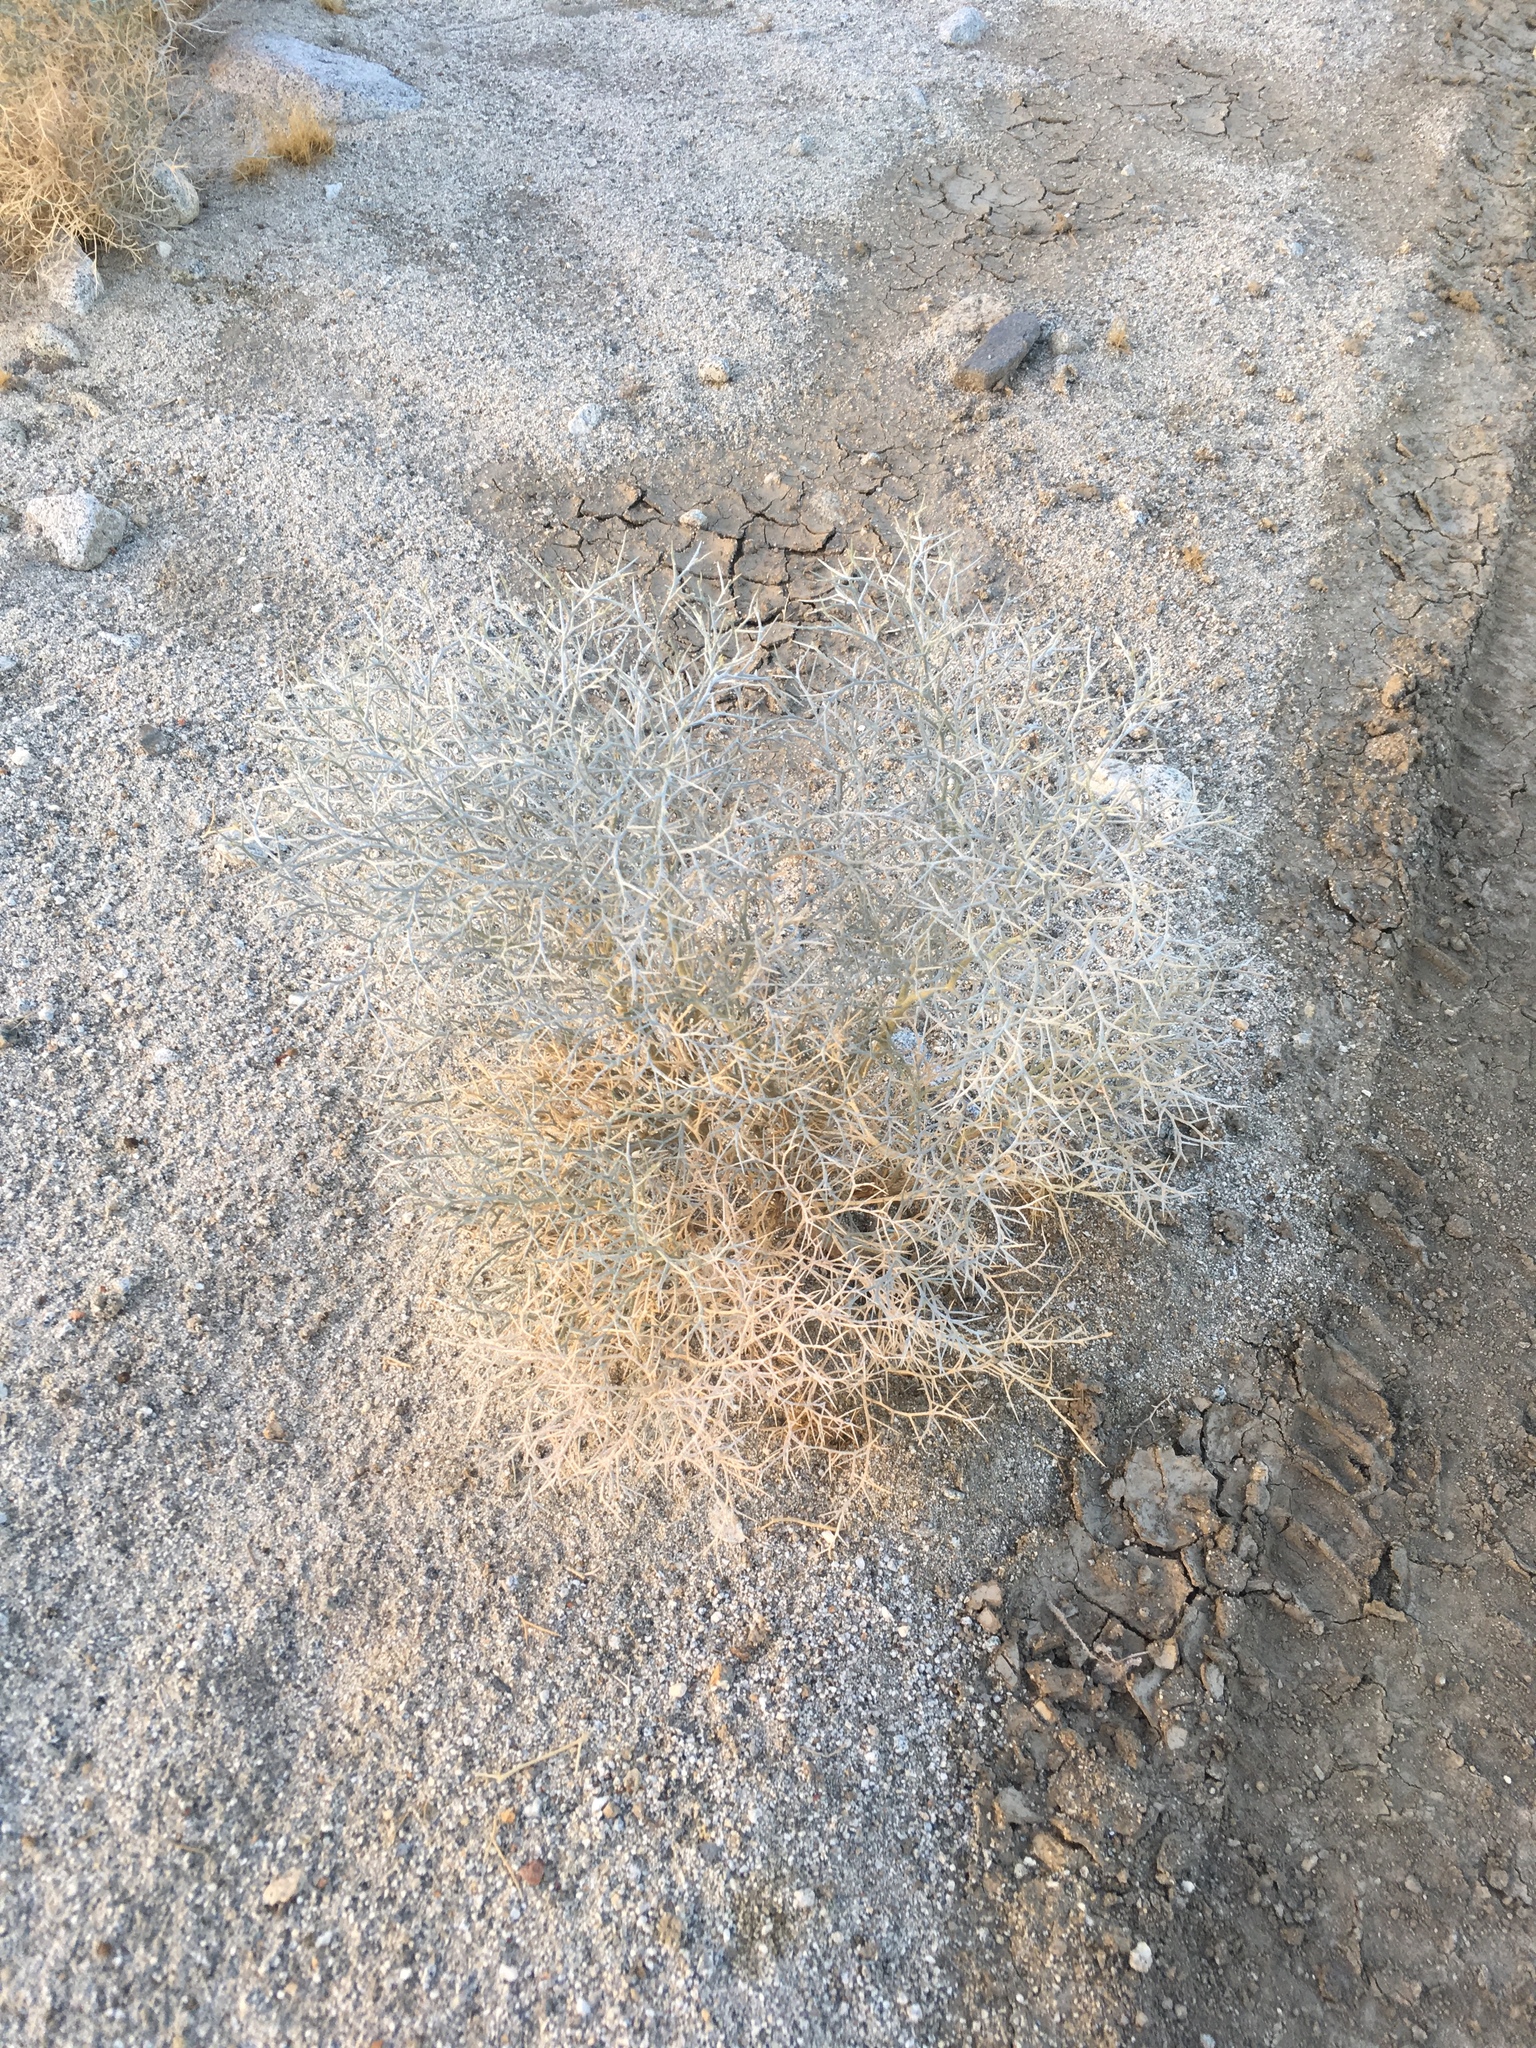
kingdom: Plantae
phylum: Tracheophyta
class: Magnoliopsida
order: Fabales
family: Fabaceae
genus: Psorothamnus
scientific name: Psorothamnus spinosus
